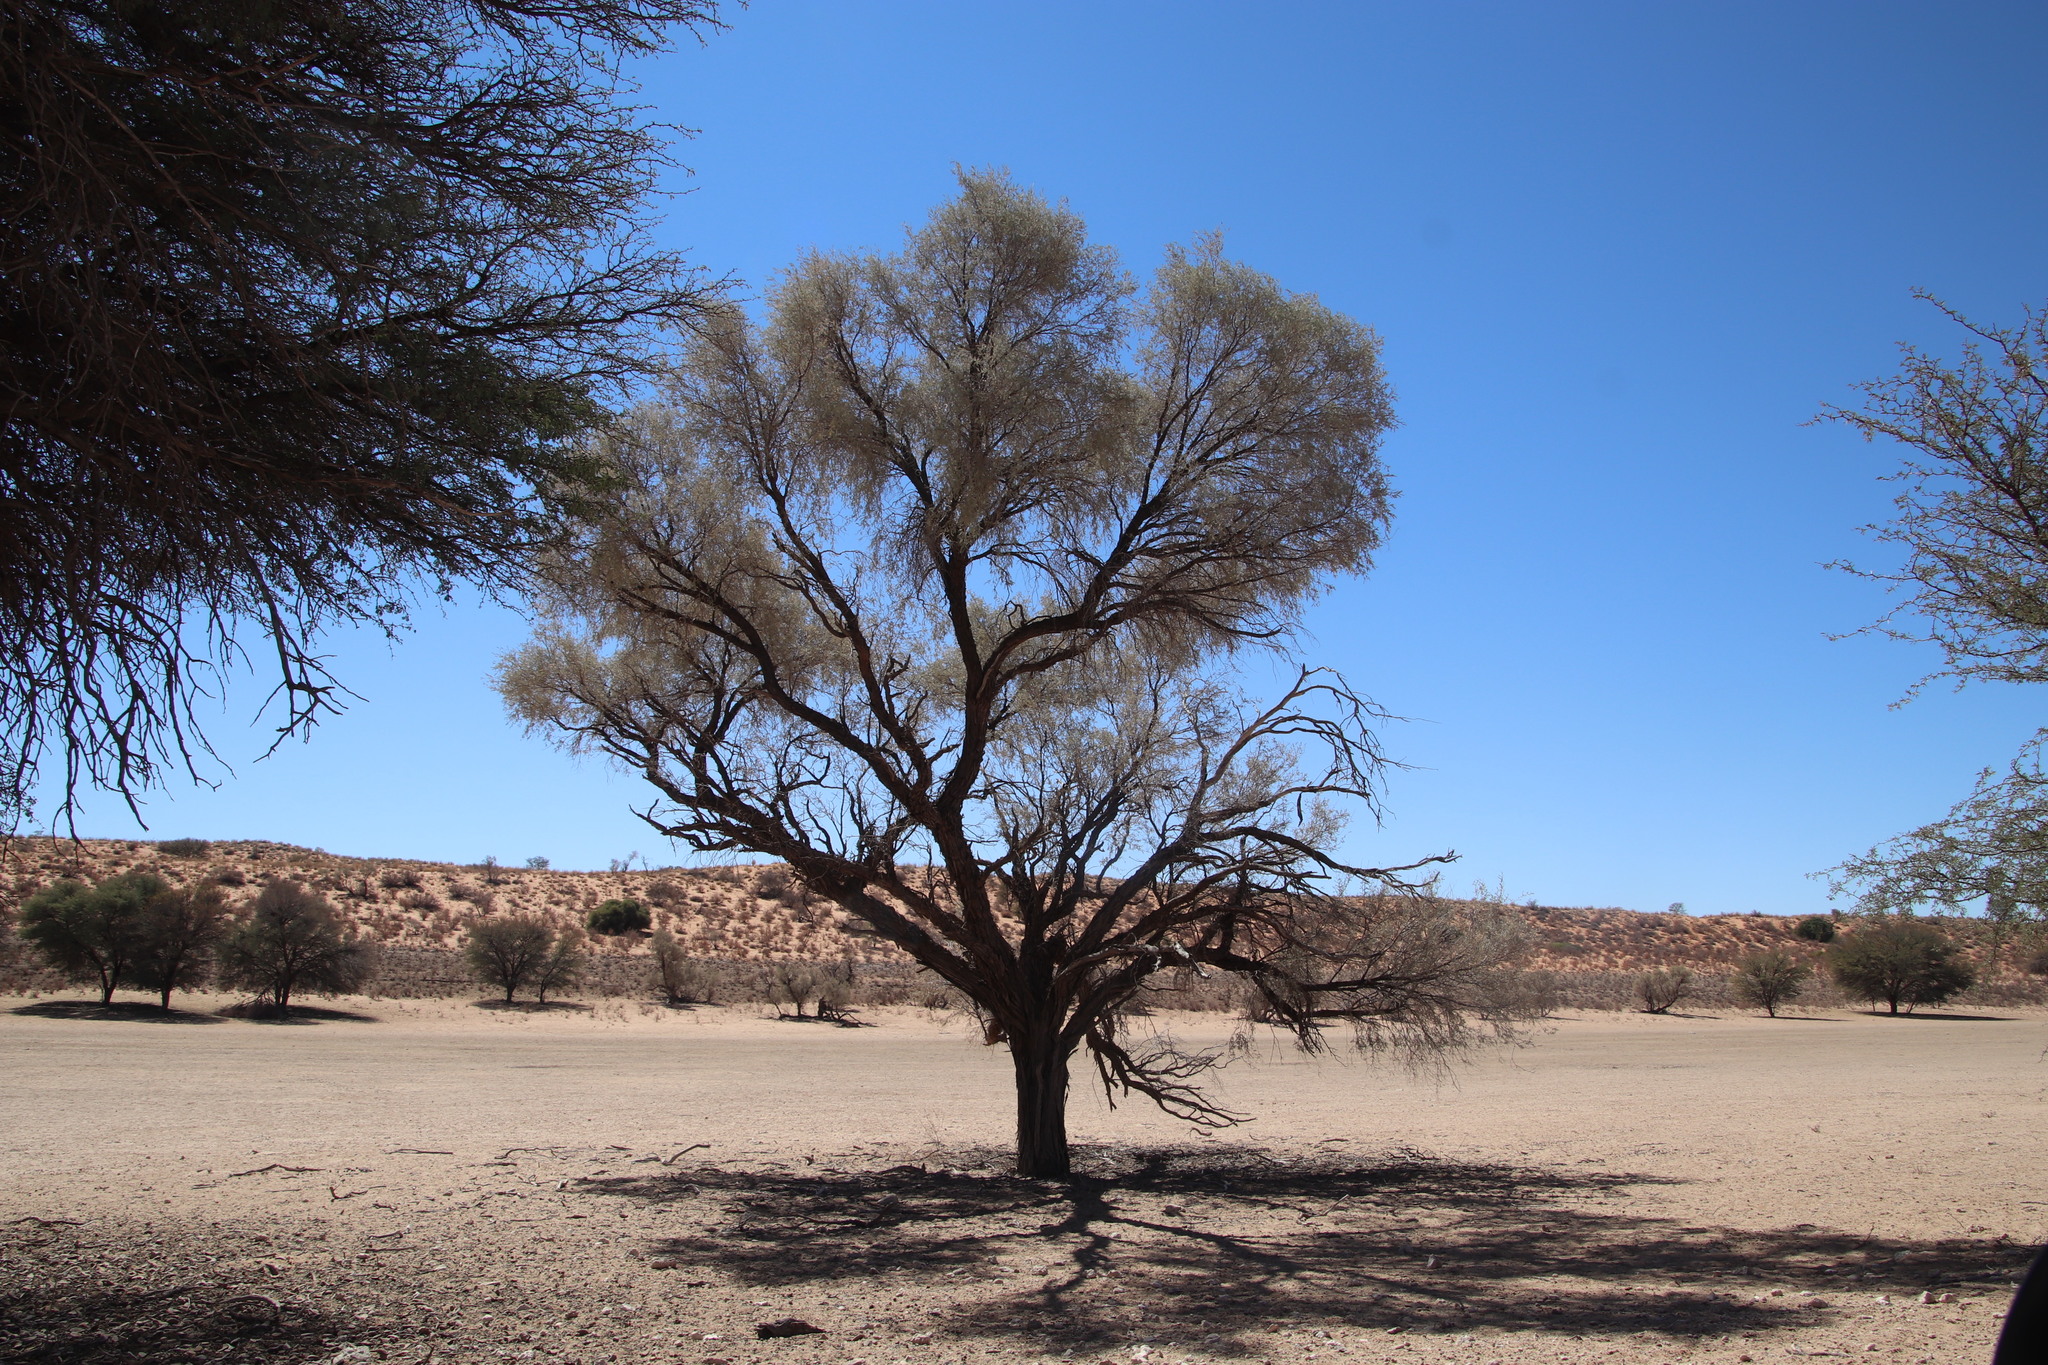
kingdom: Plantae
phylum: Tracheophyta
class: Magnoliopsida
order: Fabales
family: Fabaceae
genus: Vachellia
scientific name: Vachellia haematoxylon
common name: Grey camel thorn
